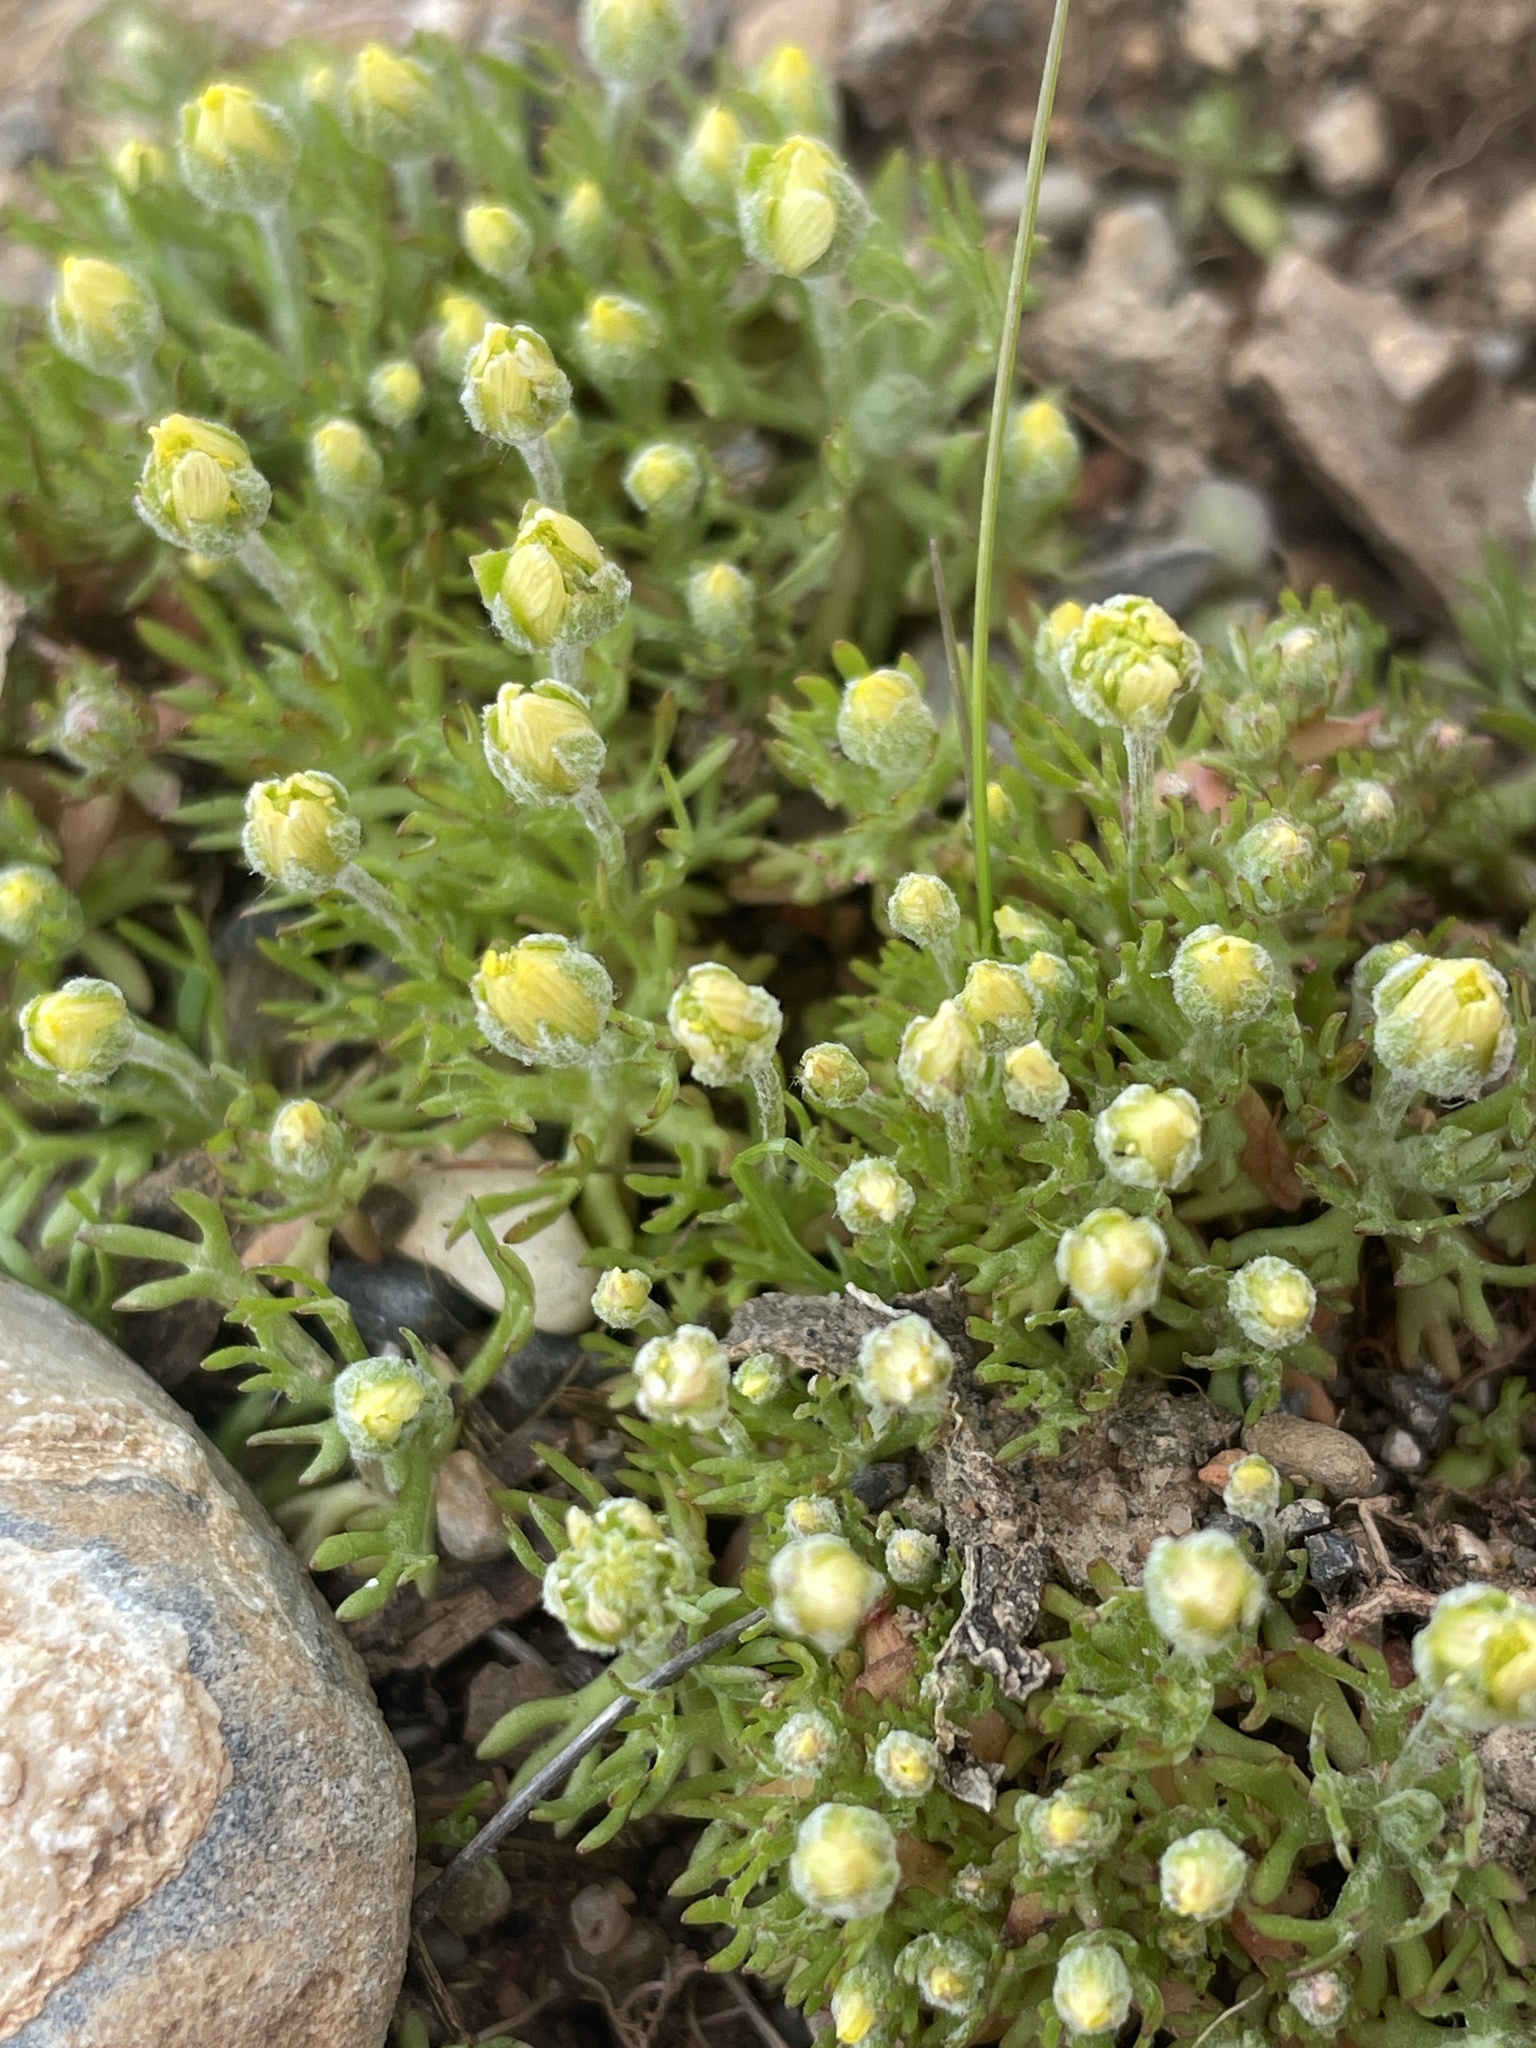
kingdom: Plantae
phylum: Tracheophyta
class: Magnoliopsida
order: Ranunculales
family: Ranunculaceae
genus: Ceratocephala
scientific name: Ceratocephala orthoceras
